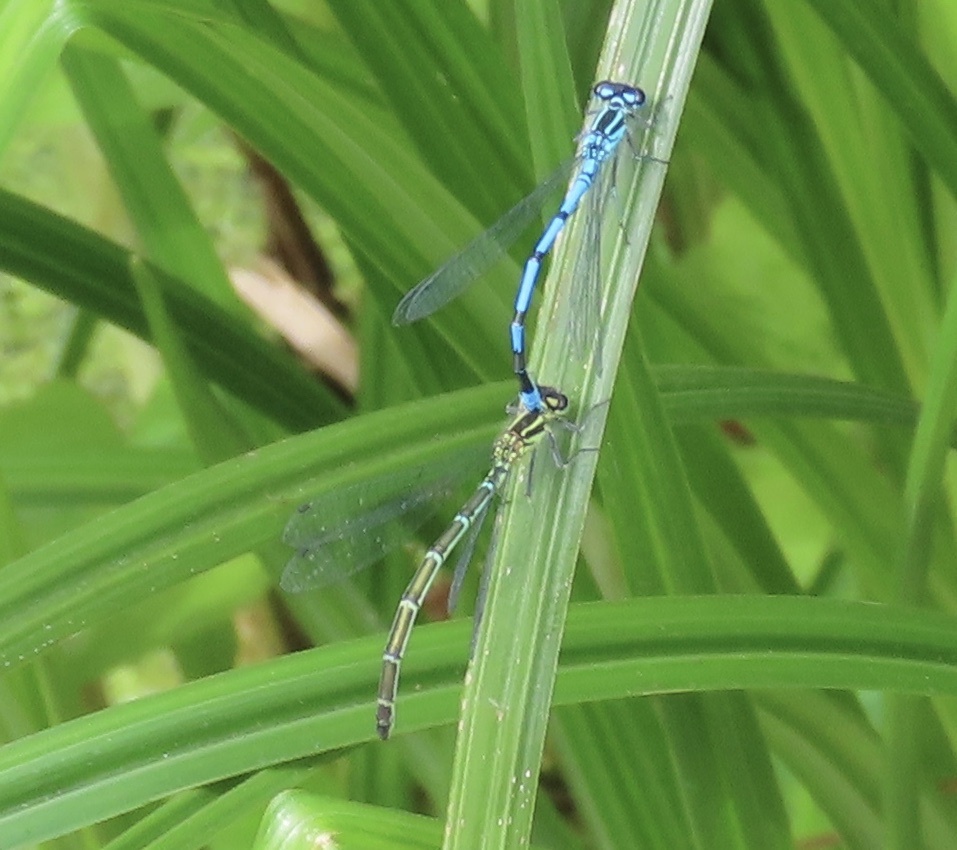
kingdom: Animalia
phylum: Arthropoda
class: Insecta
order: Odonata
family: Coenagrionidae
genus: Coenagrion
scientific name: Coenagrion puella
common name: Azure damselfly
